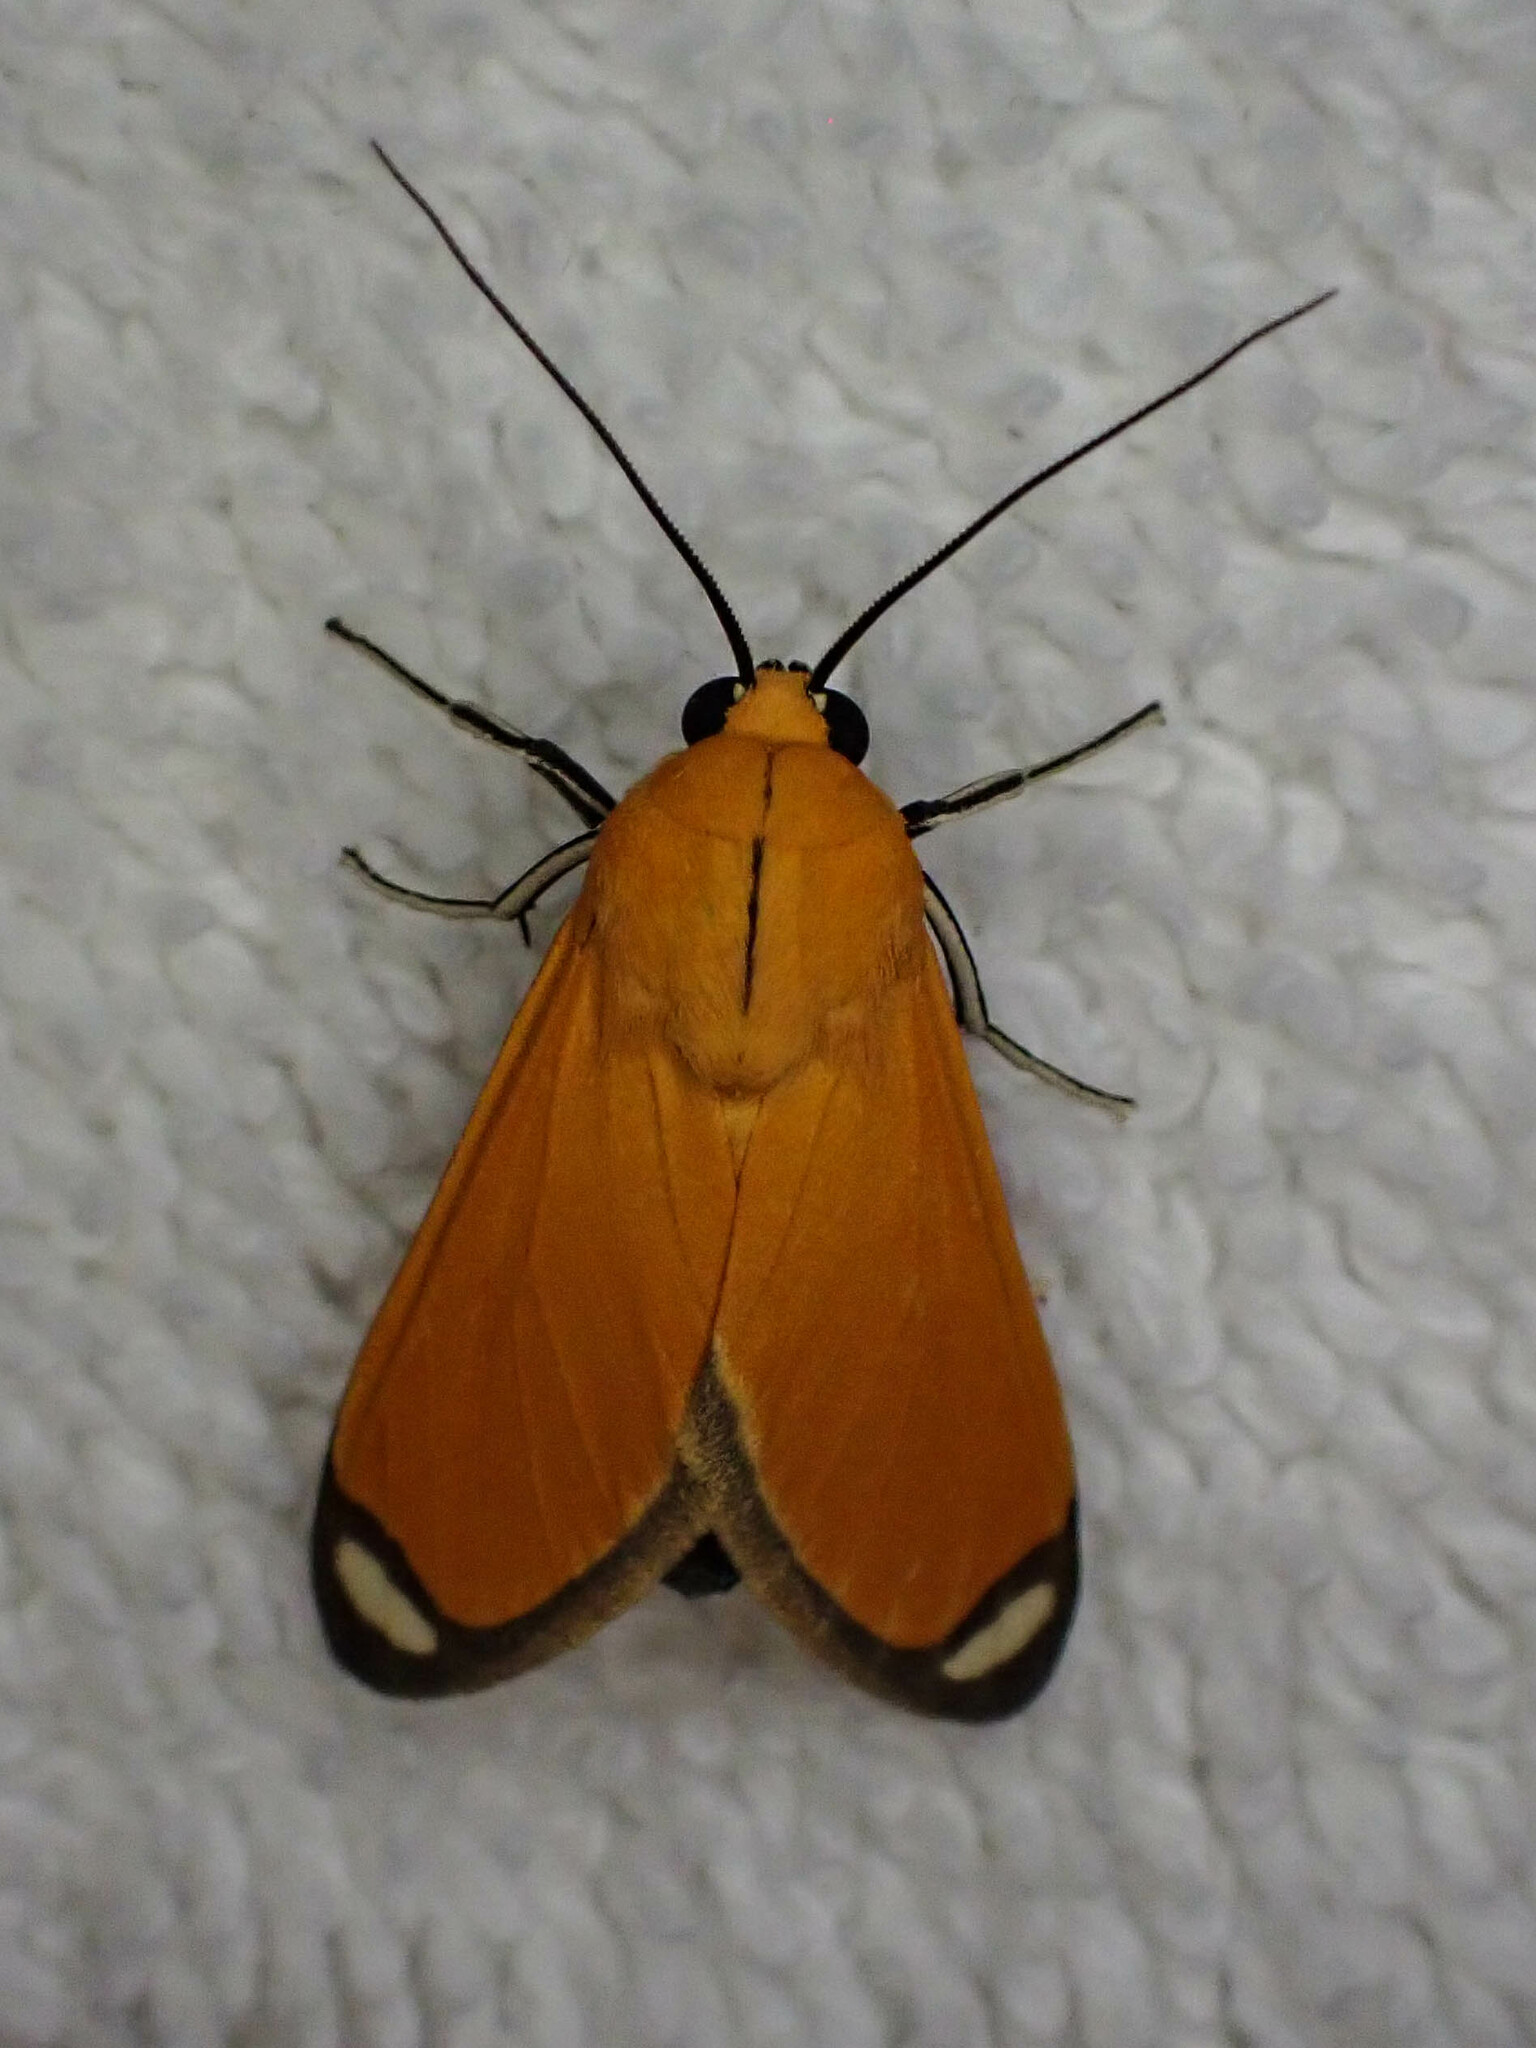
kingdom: Animalia
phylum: Arthropoda
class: Insecta
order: Lepidoptera
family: Erebidae
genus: Ormetica
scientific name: Ormetica sicilia
